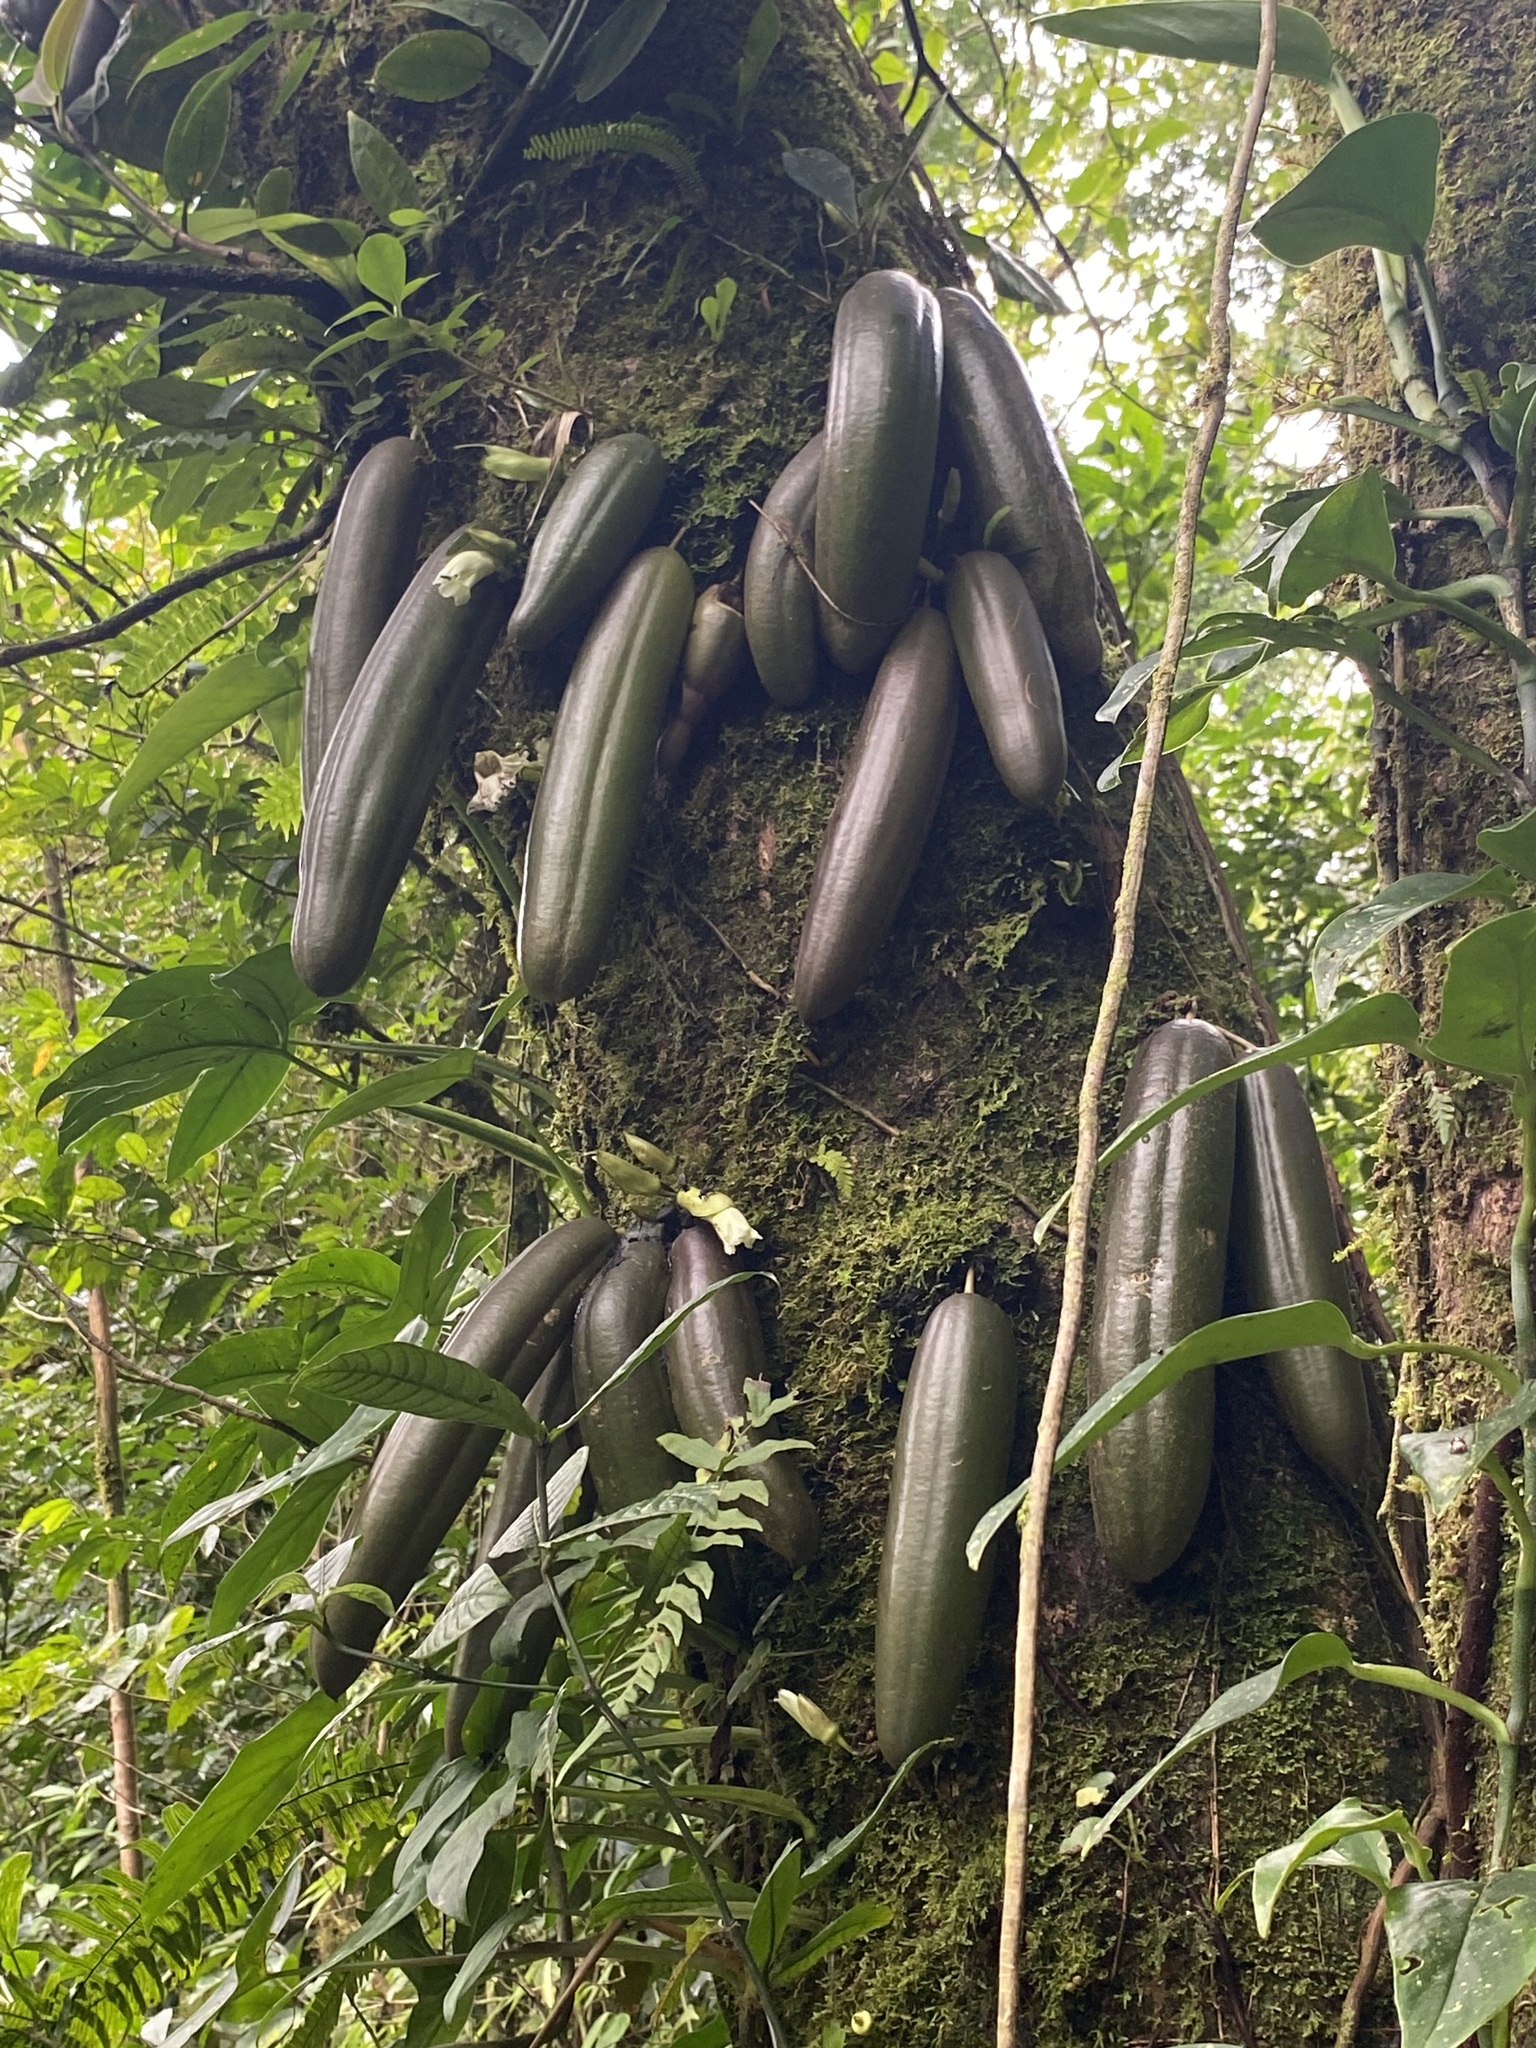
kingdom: Plantae
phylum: Tracheophyta
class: Magnoliopsida
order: Lamiales
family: Bignoniaceae
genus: Parmentiera
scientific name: Parmentiera valerii
